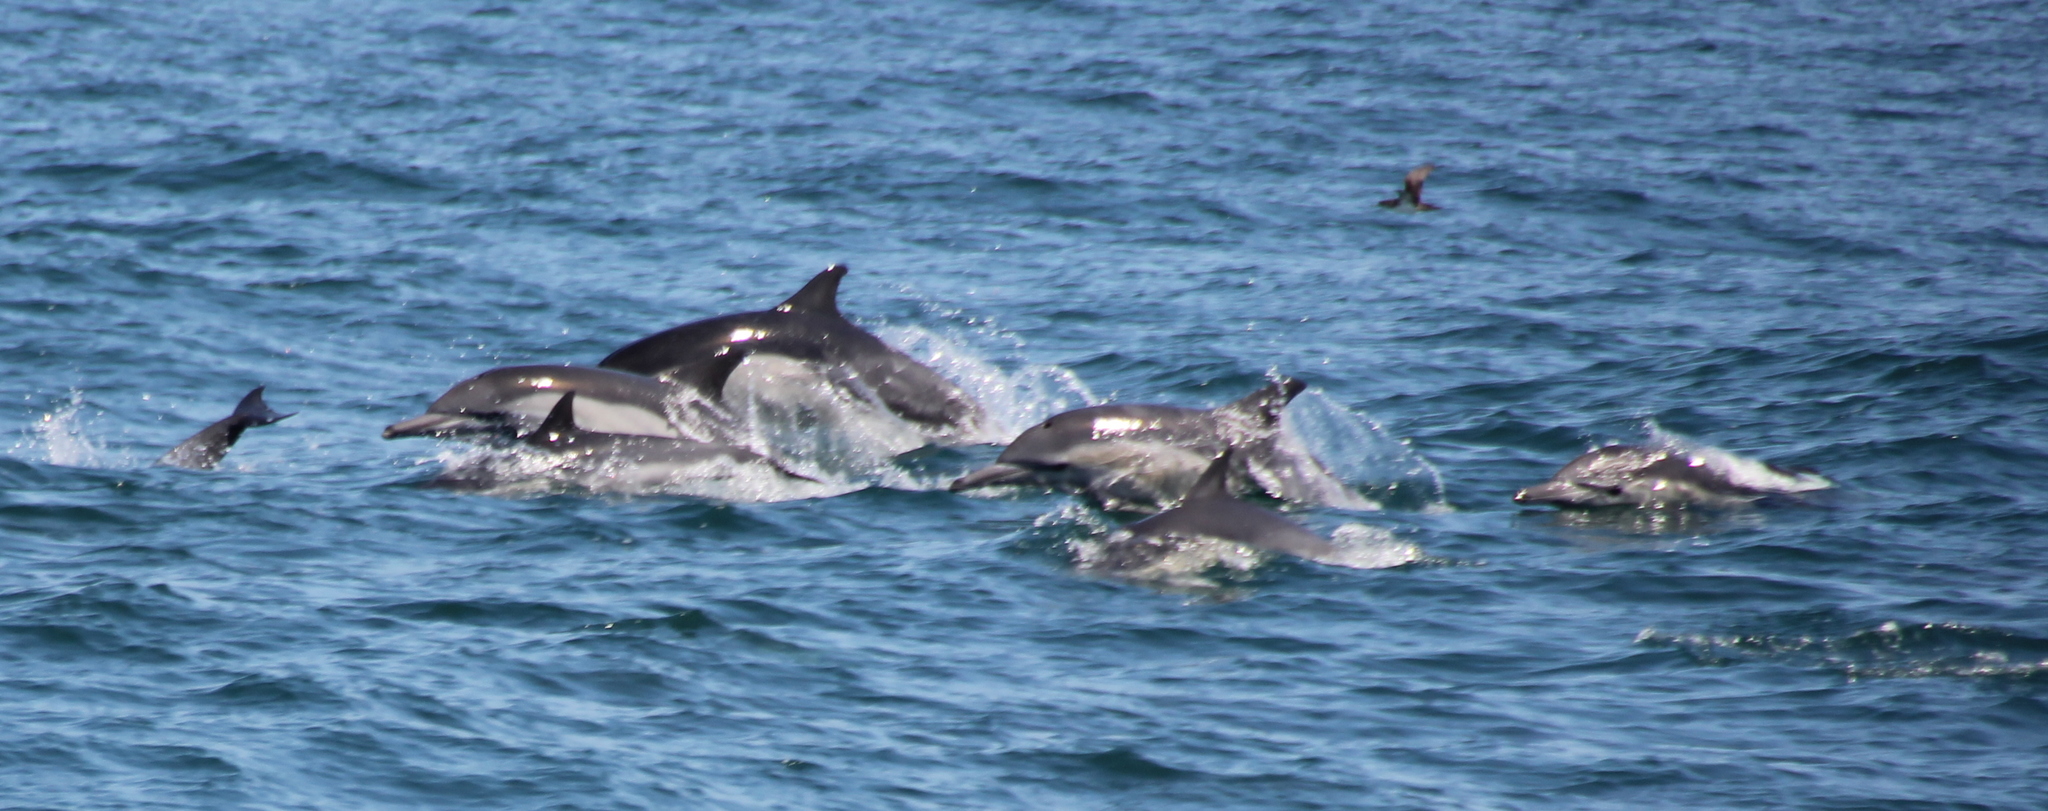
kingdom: Animalia
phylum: Chordata
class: Mammalia
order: Cetacea
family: Delphinidae
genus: Delphinus
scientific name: Delphinus delphis
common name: Common dolphin
